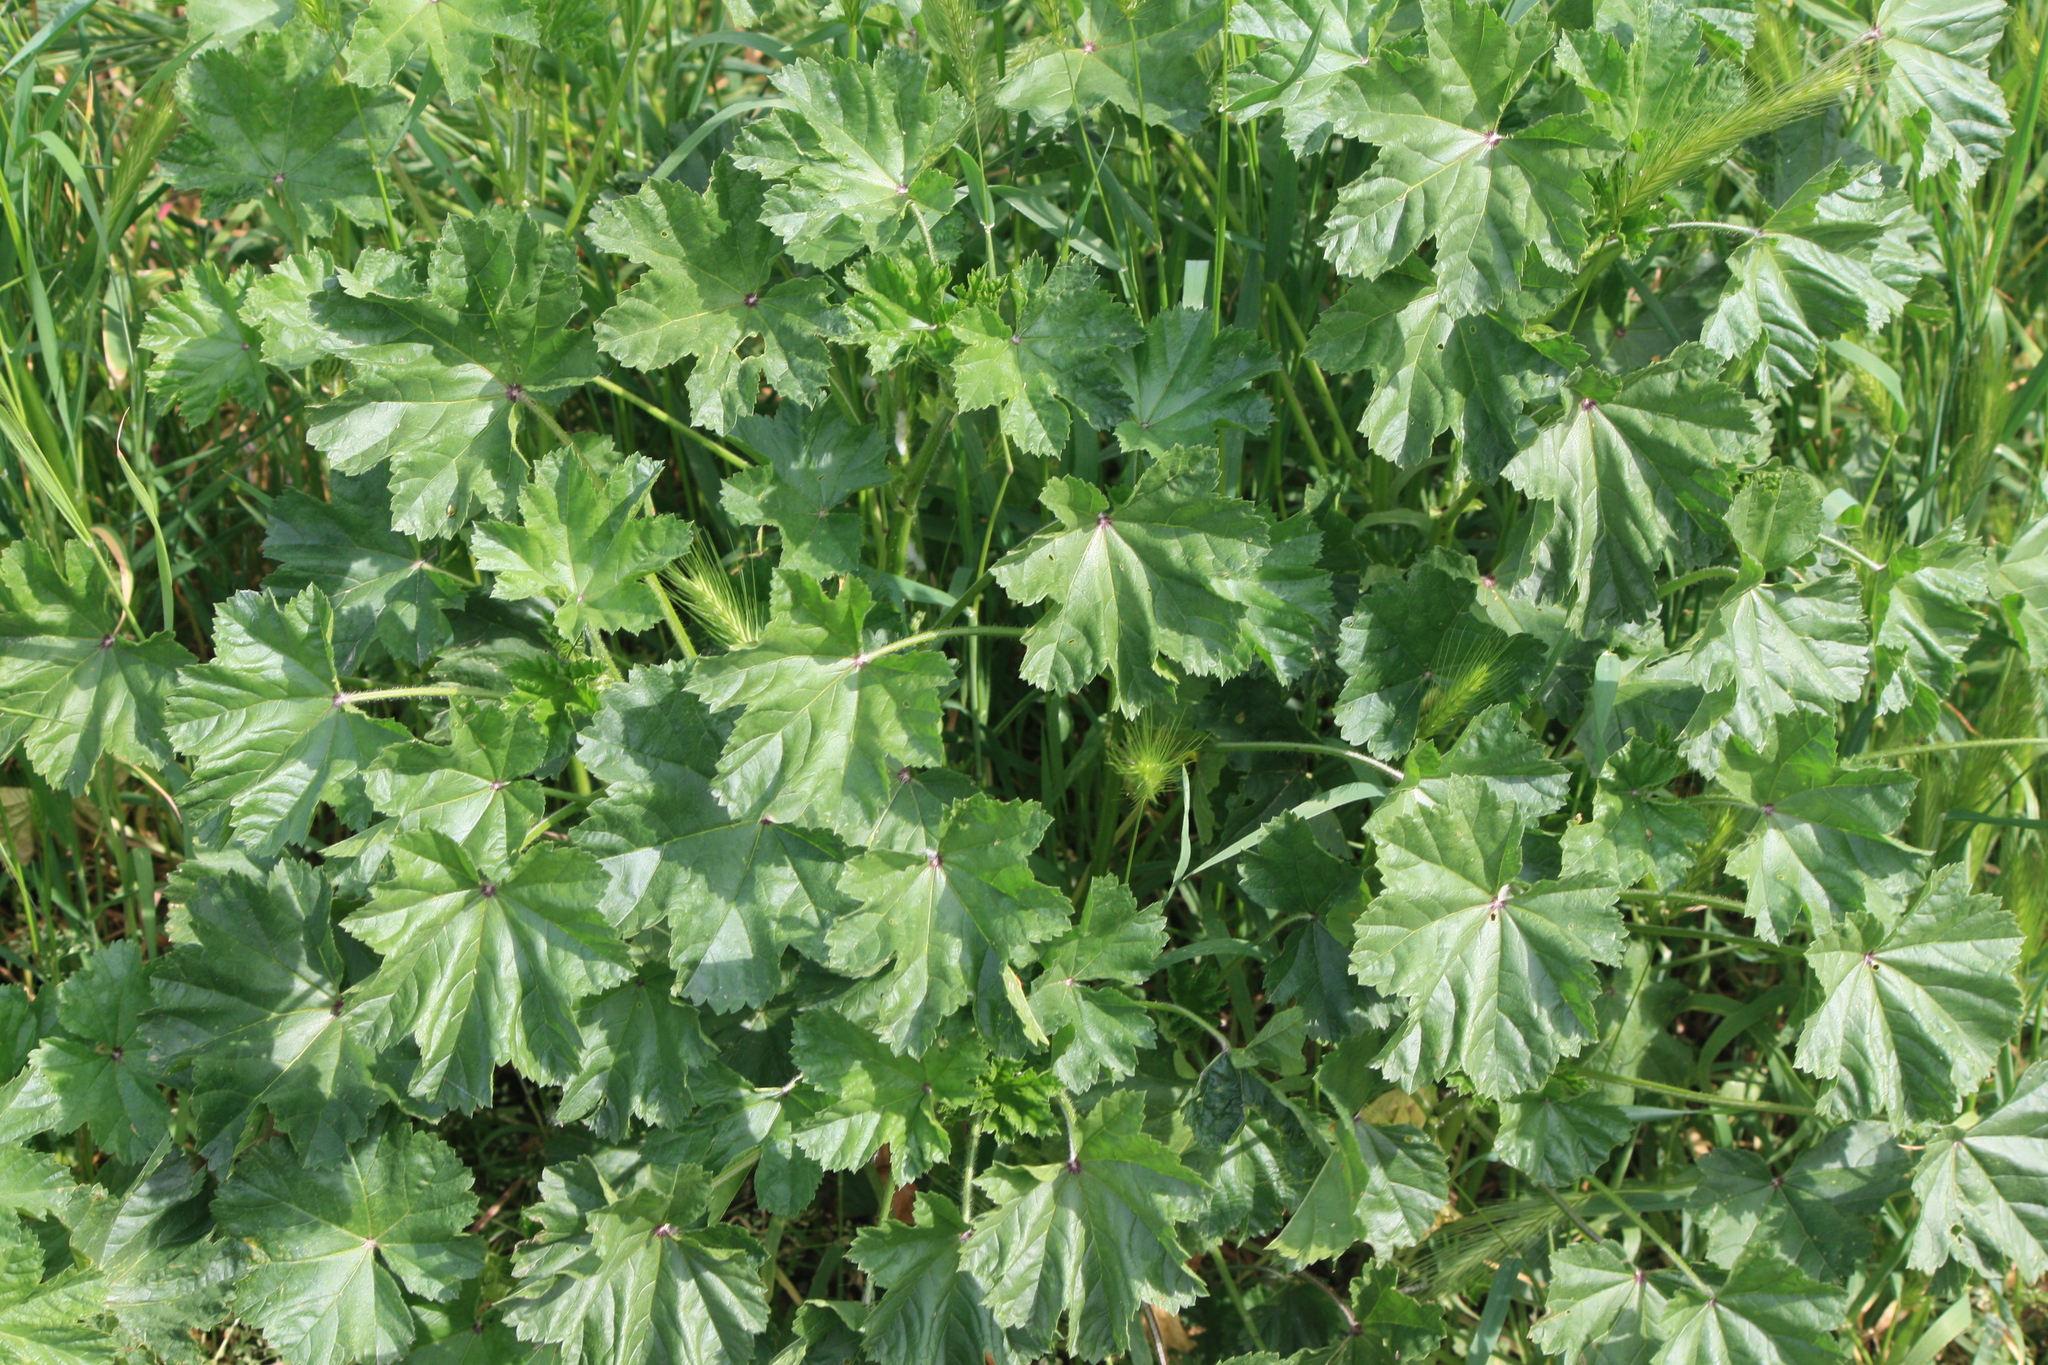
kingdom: Plantae
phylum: Tracheophyta
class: Magnoliopsida
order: Malvales
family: Malvaceae
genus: Malva
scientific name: Malva sylvestris
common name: Common mallow
